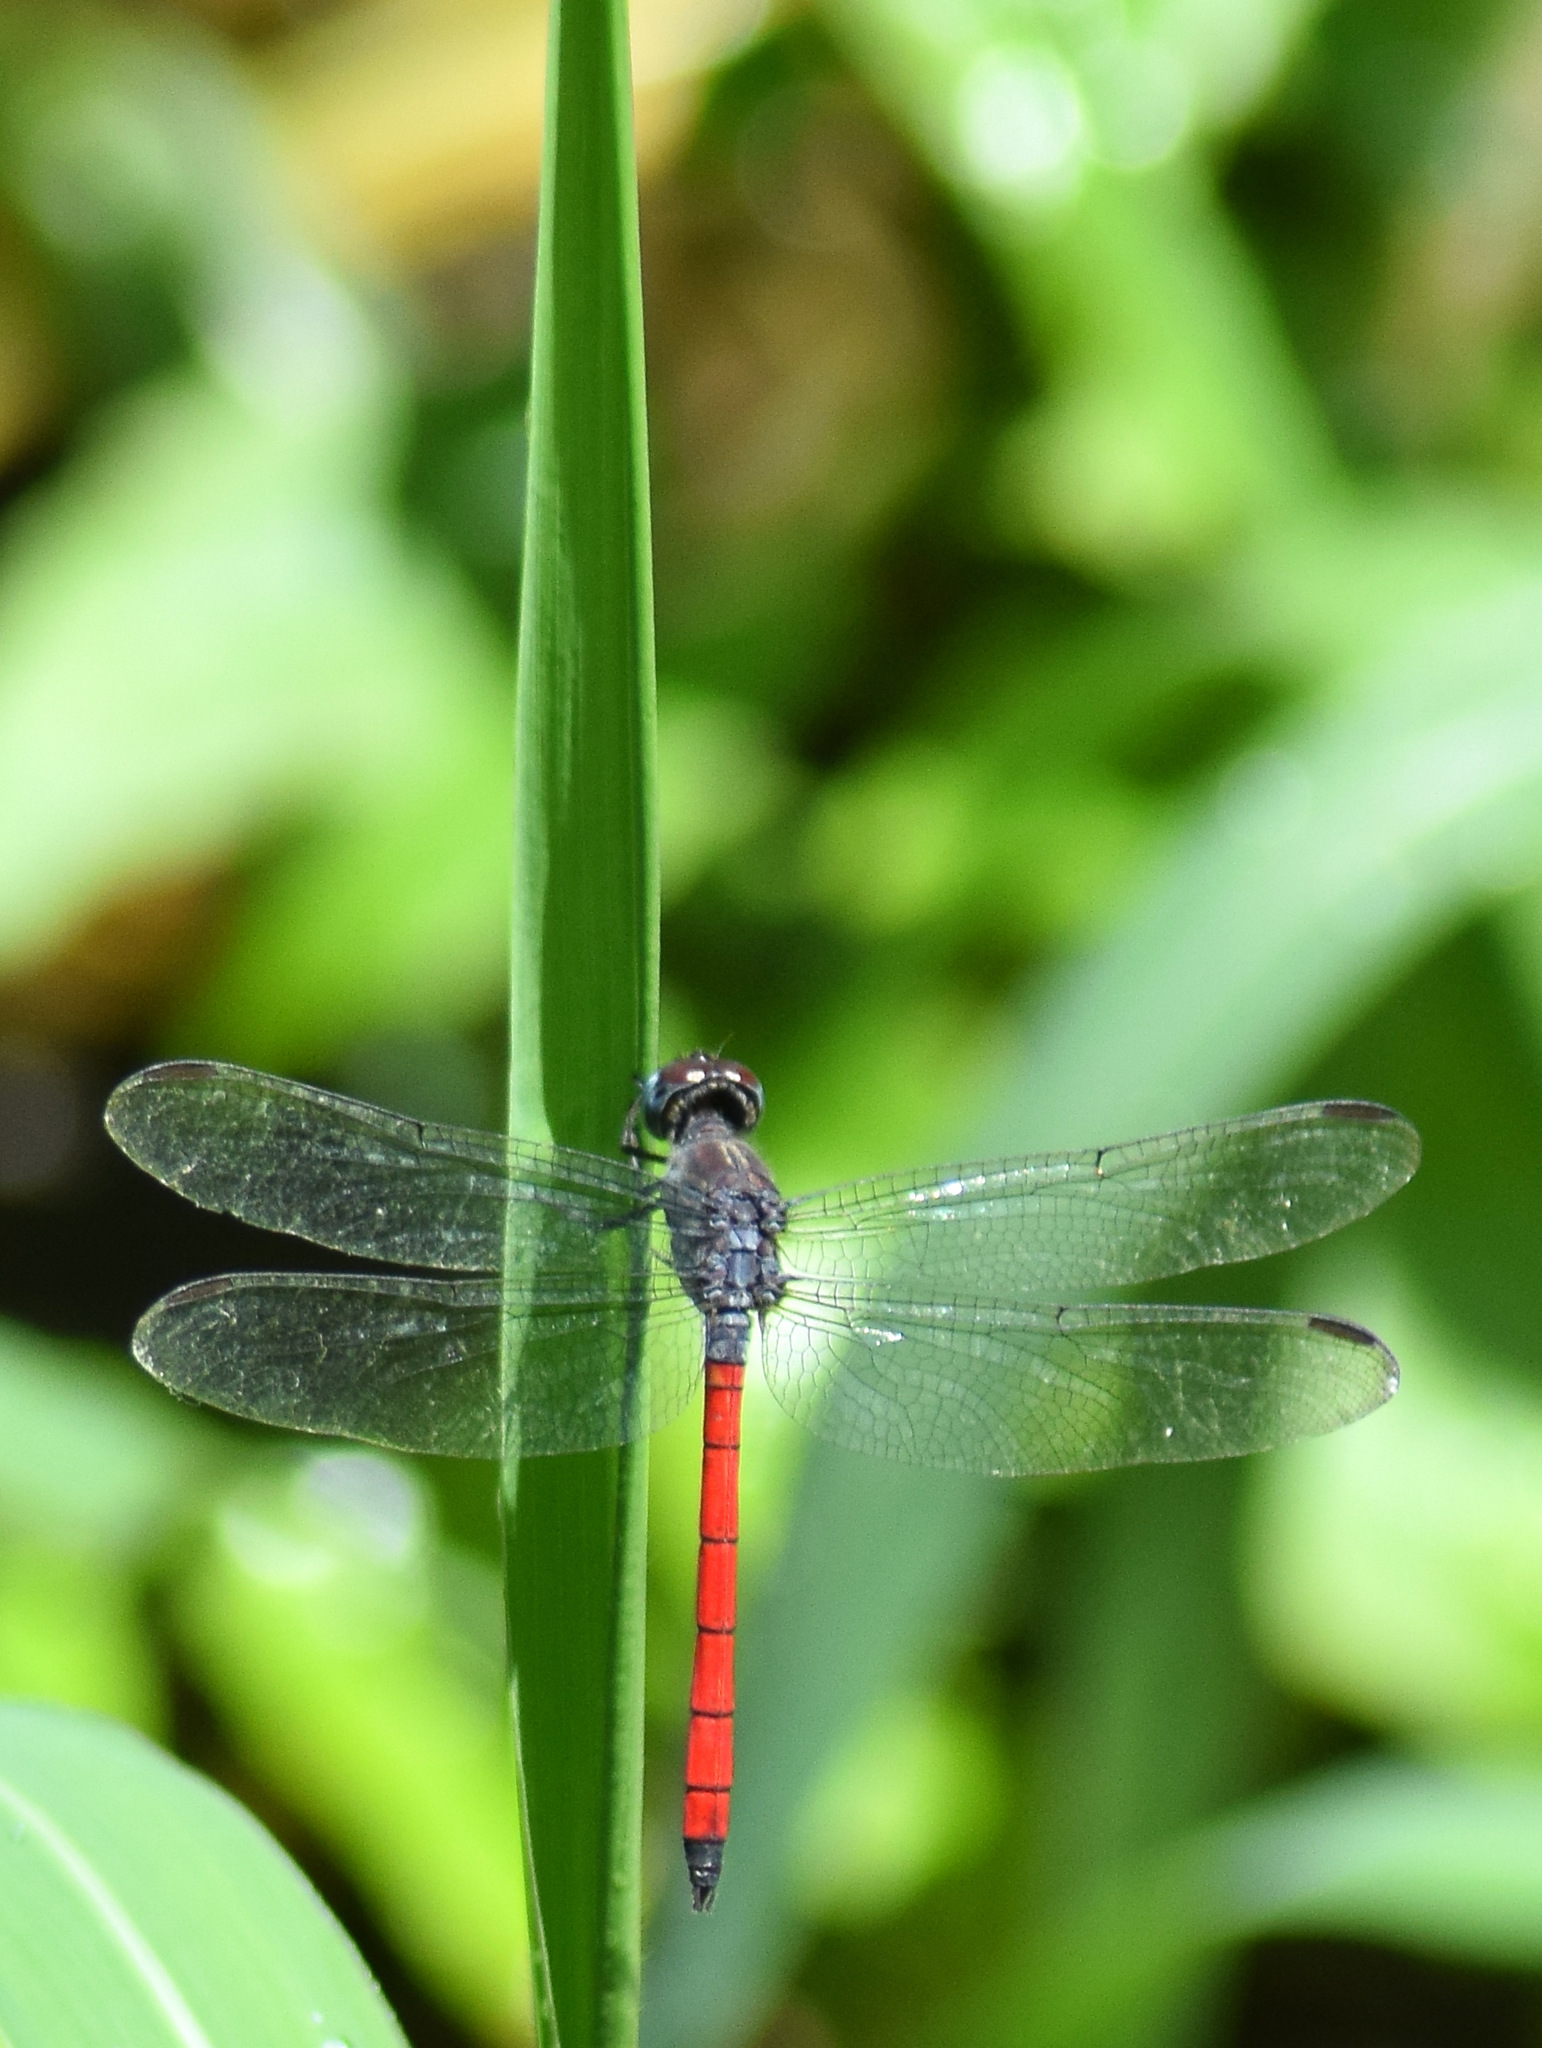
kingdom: Animalia
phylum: Arthropoda
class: Insecta
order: Odonata
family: Libellulidae
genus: Lathrecista
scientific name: Lathrecista asiatica
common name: Scarlet grenadier
